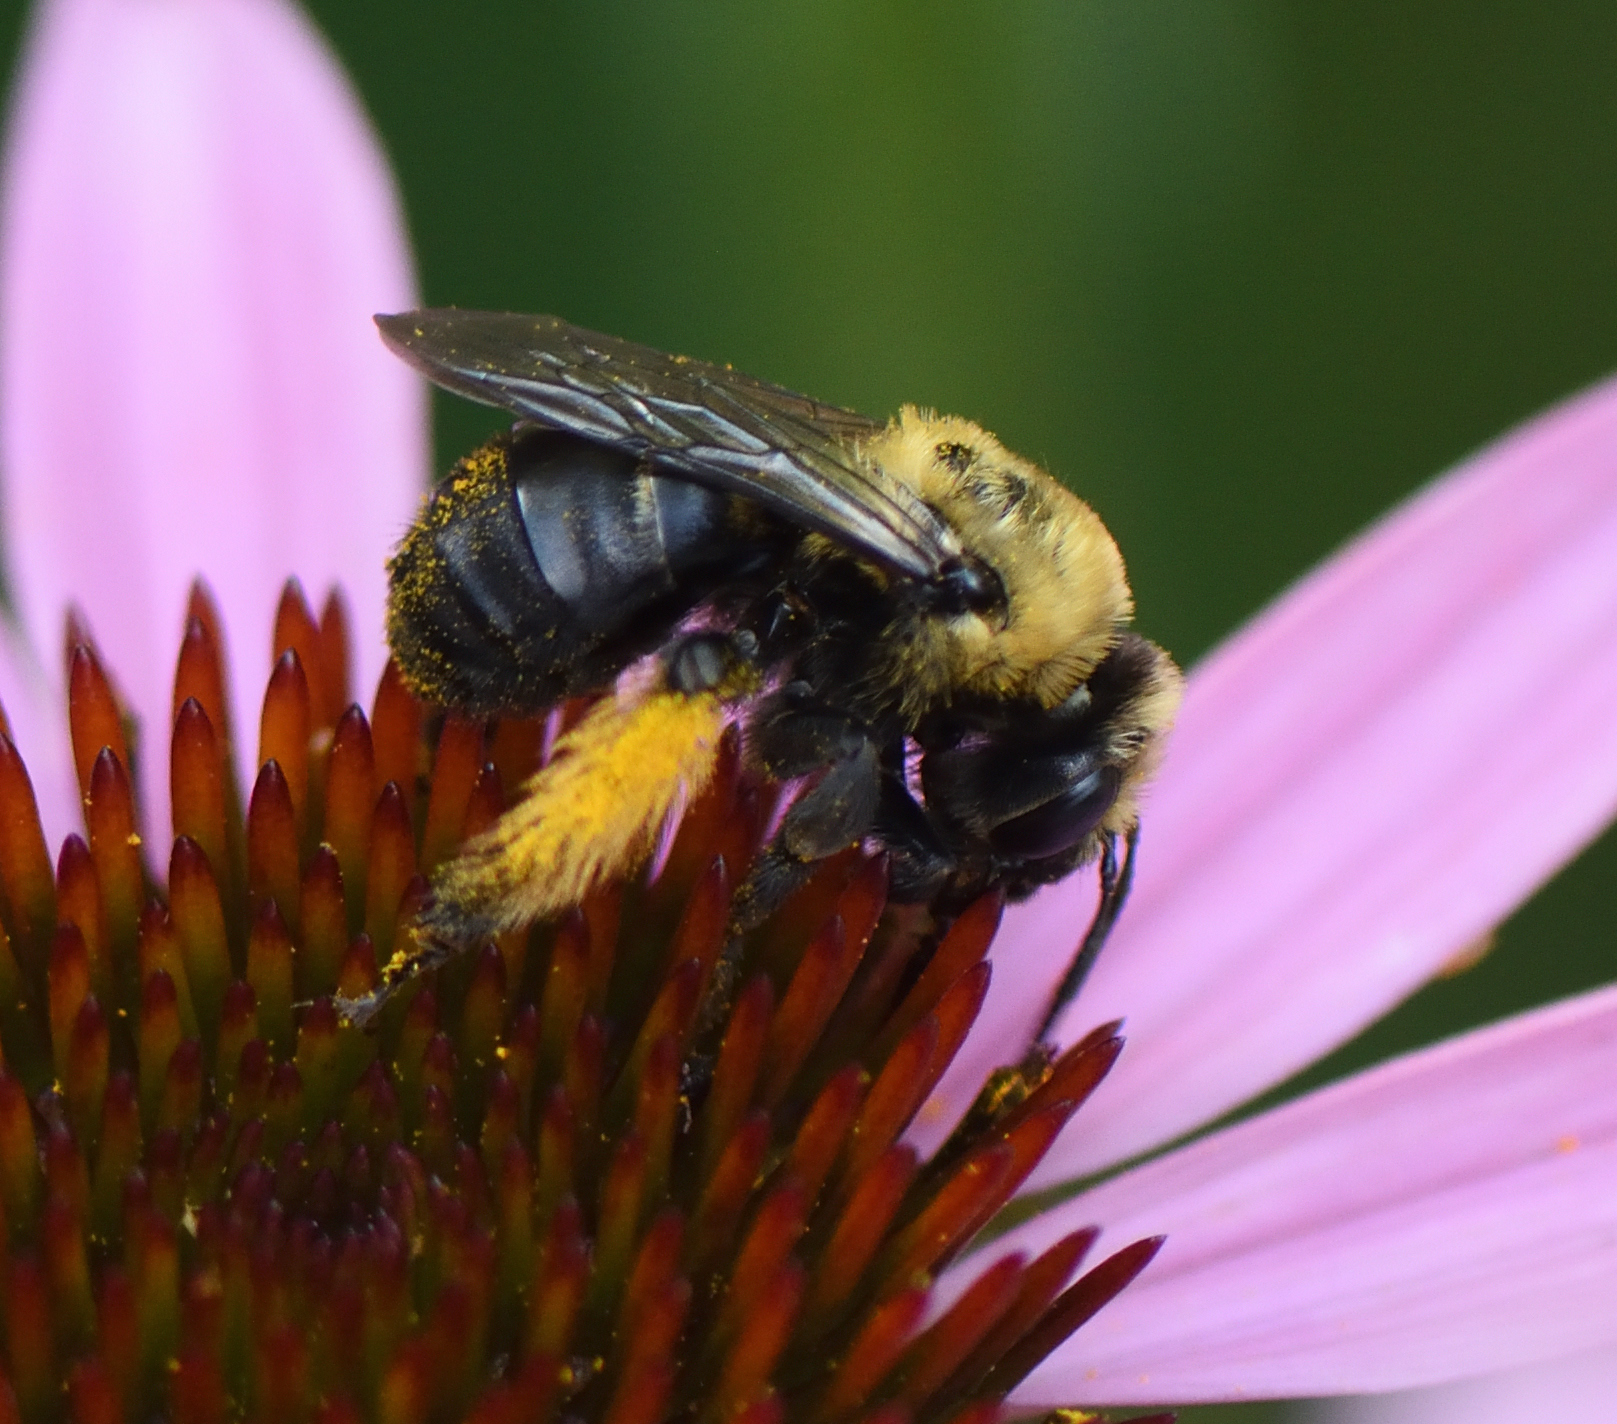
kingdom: Animalia
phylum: Arthropoda
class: Insecta
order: Hymenoptera
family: Apidae
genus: Melissodes
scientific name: Melissodes desponsus
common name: Thistle long-horned bee
